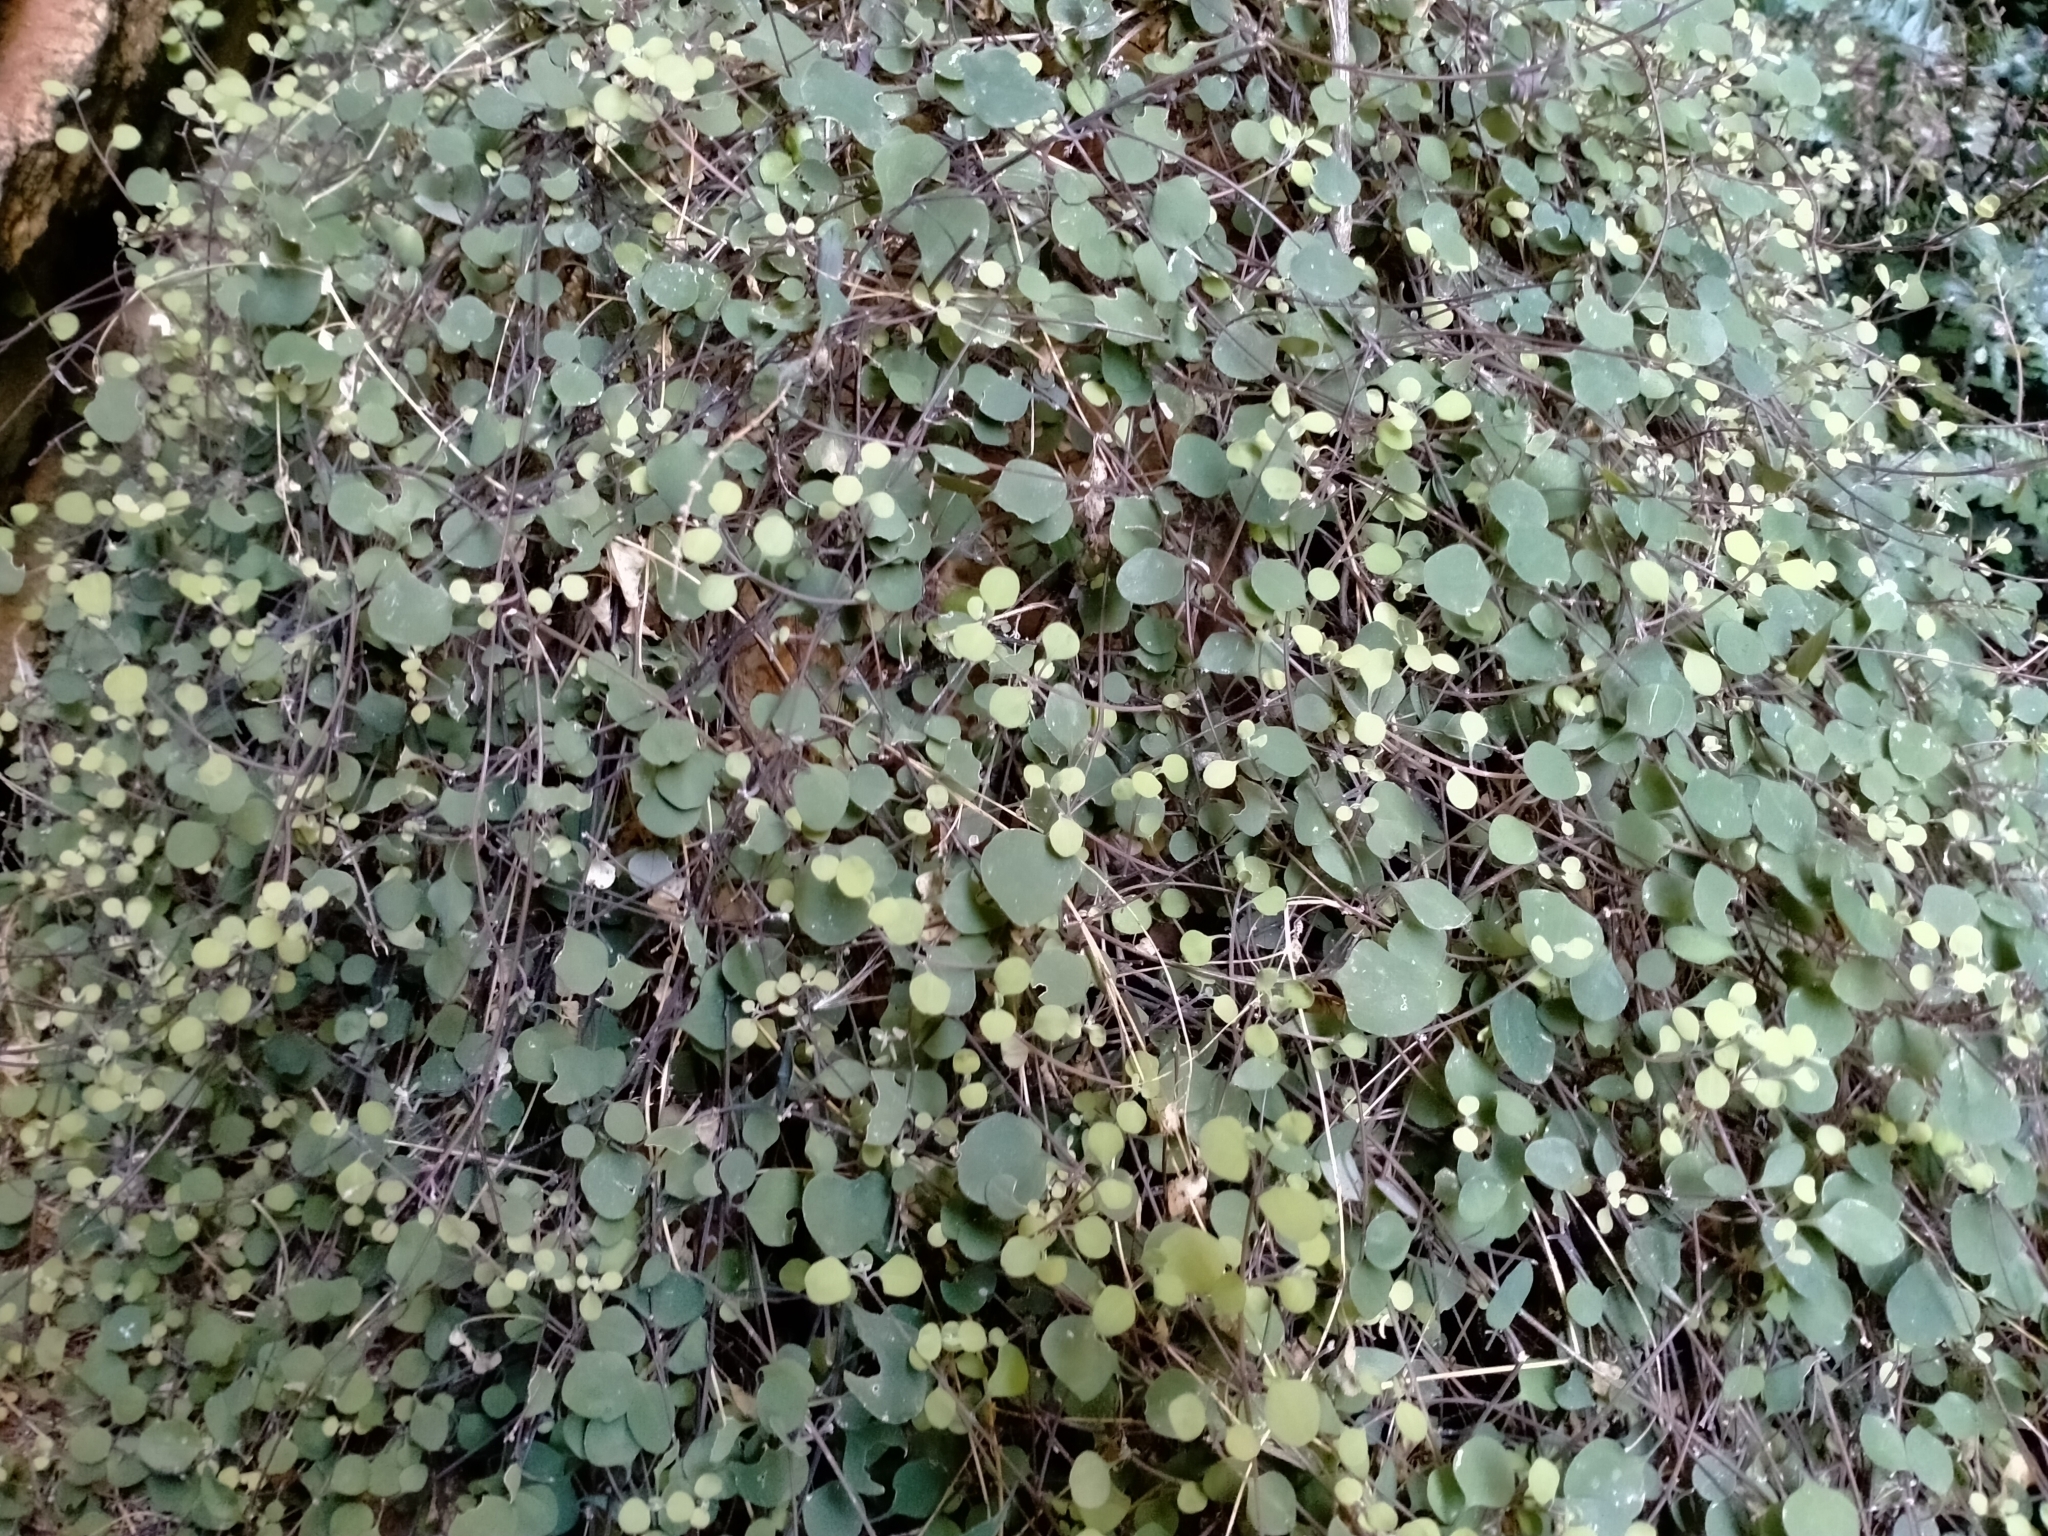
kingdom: Plantae
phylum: Tracheophyta
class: Magnoliopsida
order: Caryophyllales
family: Amaranthaceae
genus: Chenopodium
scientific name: Chenopodium allanii
